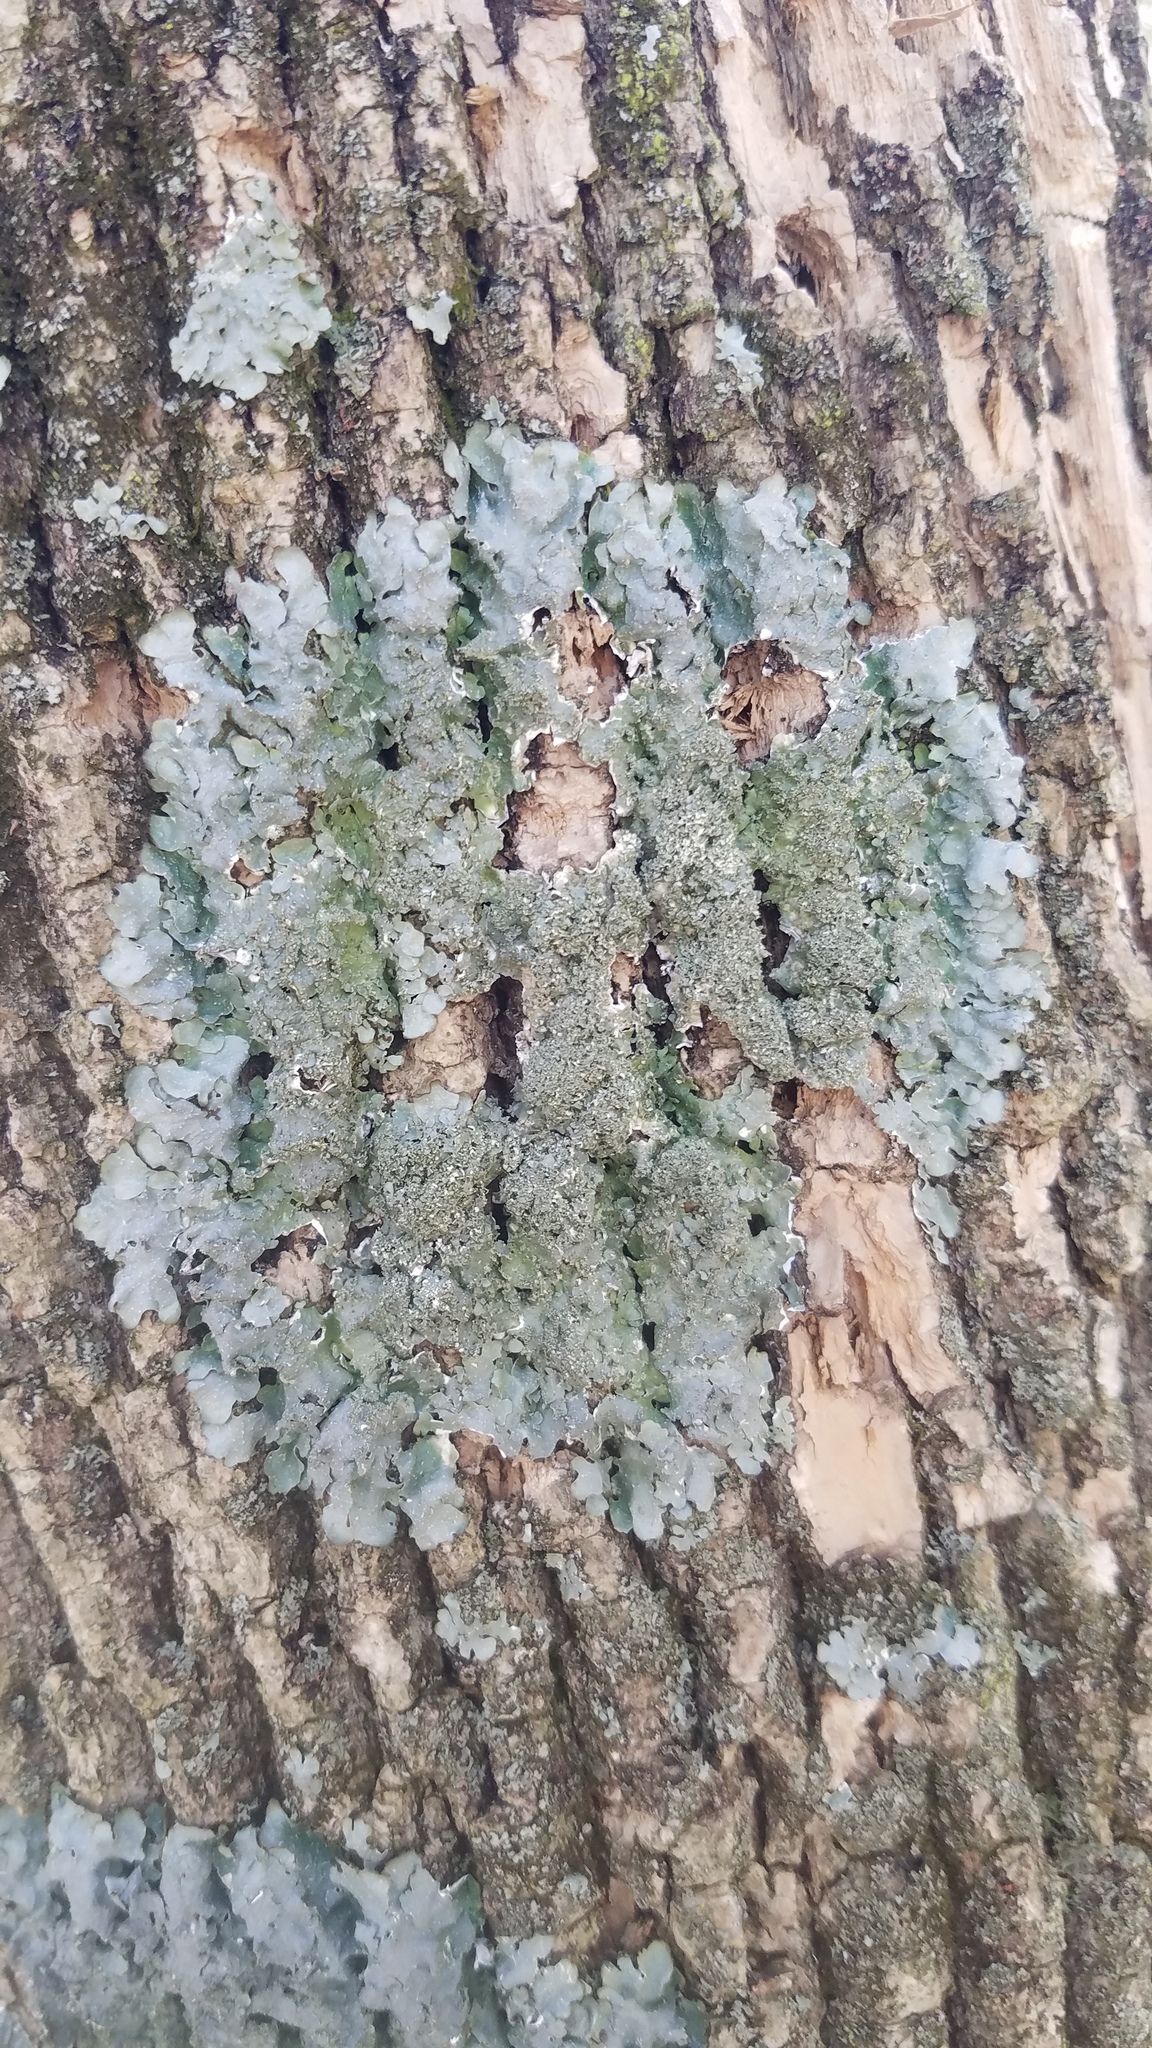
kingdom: Fungi
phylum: Ascomycota
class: Lecanoromycetes
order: Lecanorales
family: Parmeliaceae
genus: Punctelia
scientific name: Punctelia rudecta
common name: Rough speckled shield lichen
